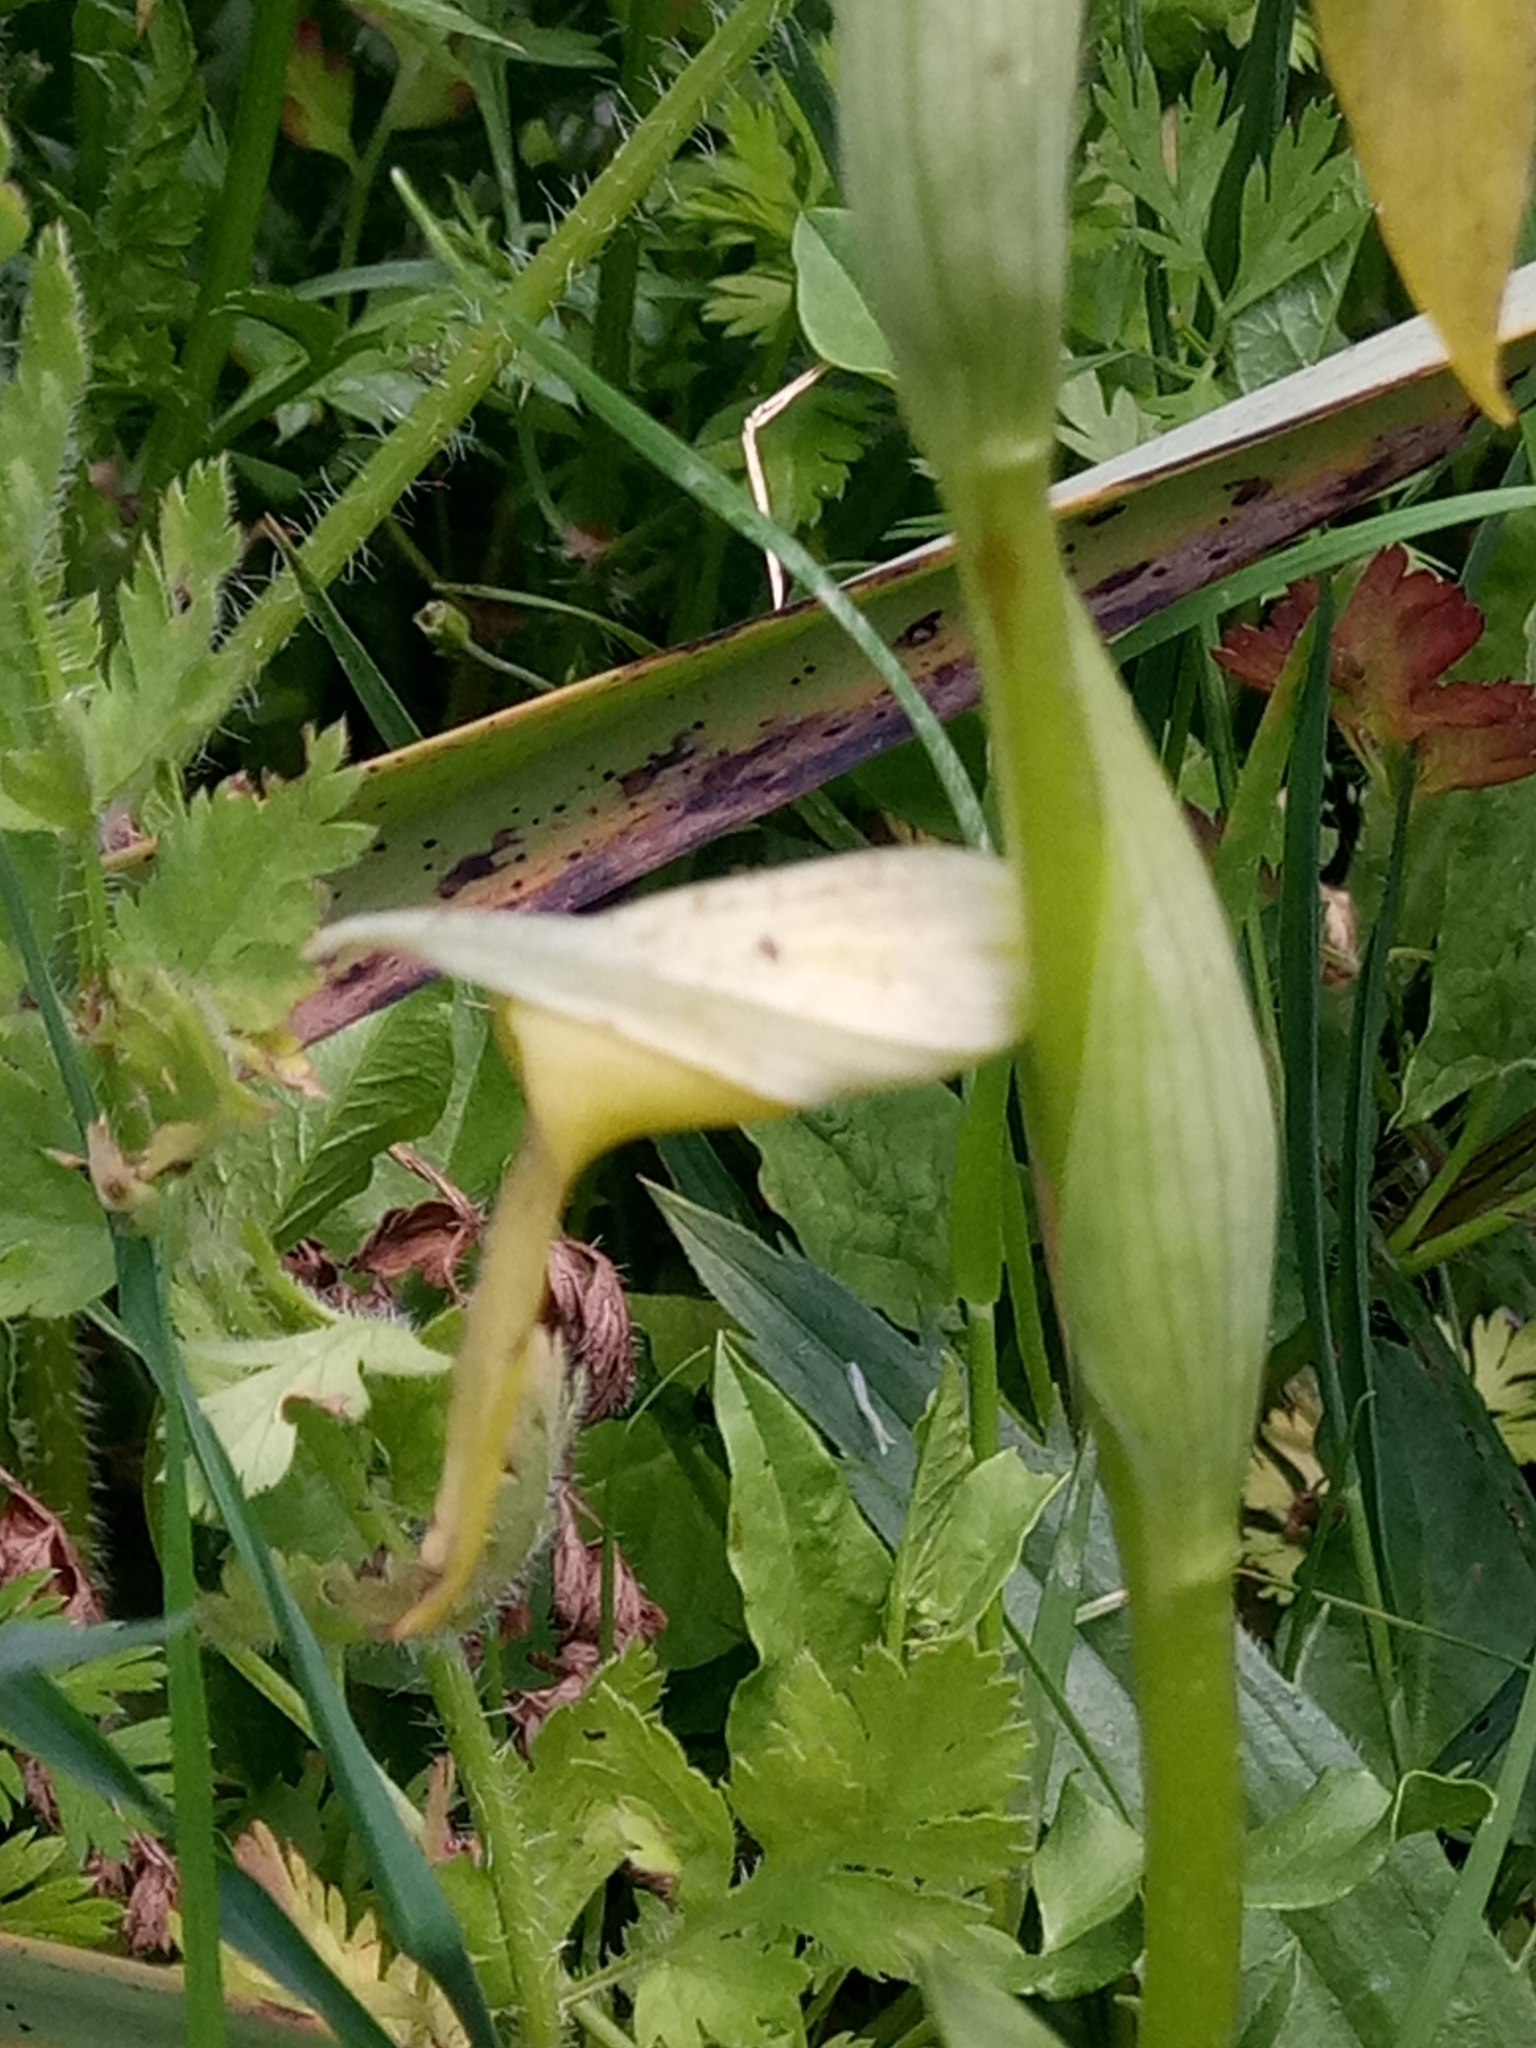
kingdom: Plantae
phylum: Tracheophyta
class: Liliopsida
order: Asparagales
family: Orchidaceae
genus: Serapias
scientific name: Serapias lingua
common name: Tongue-orchid
